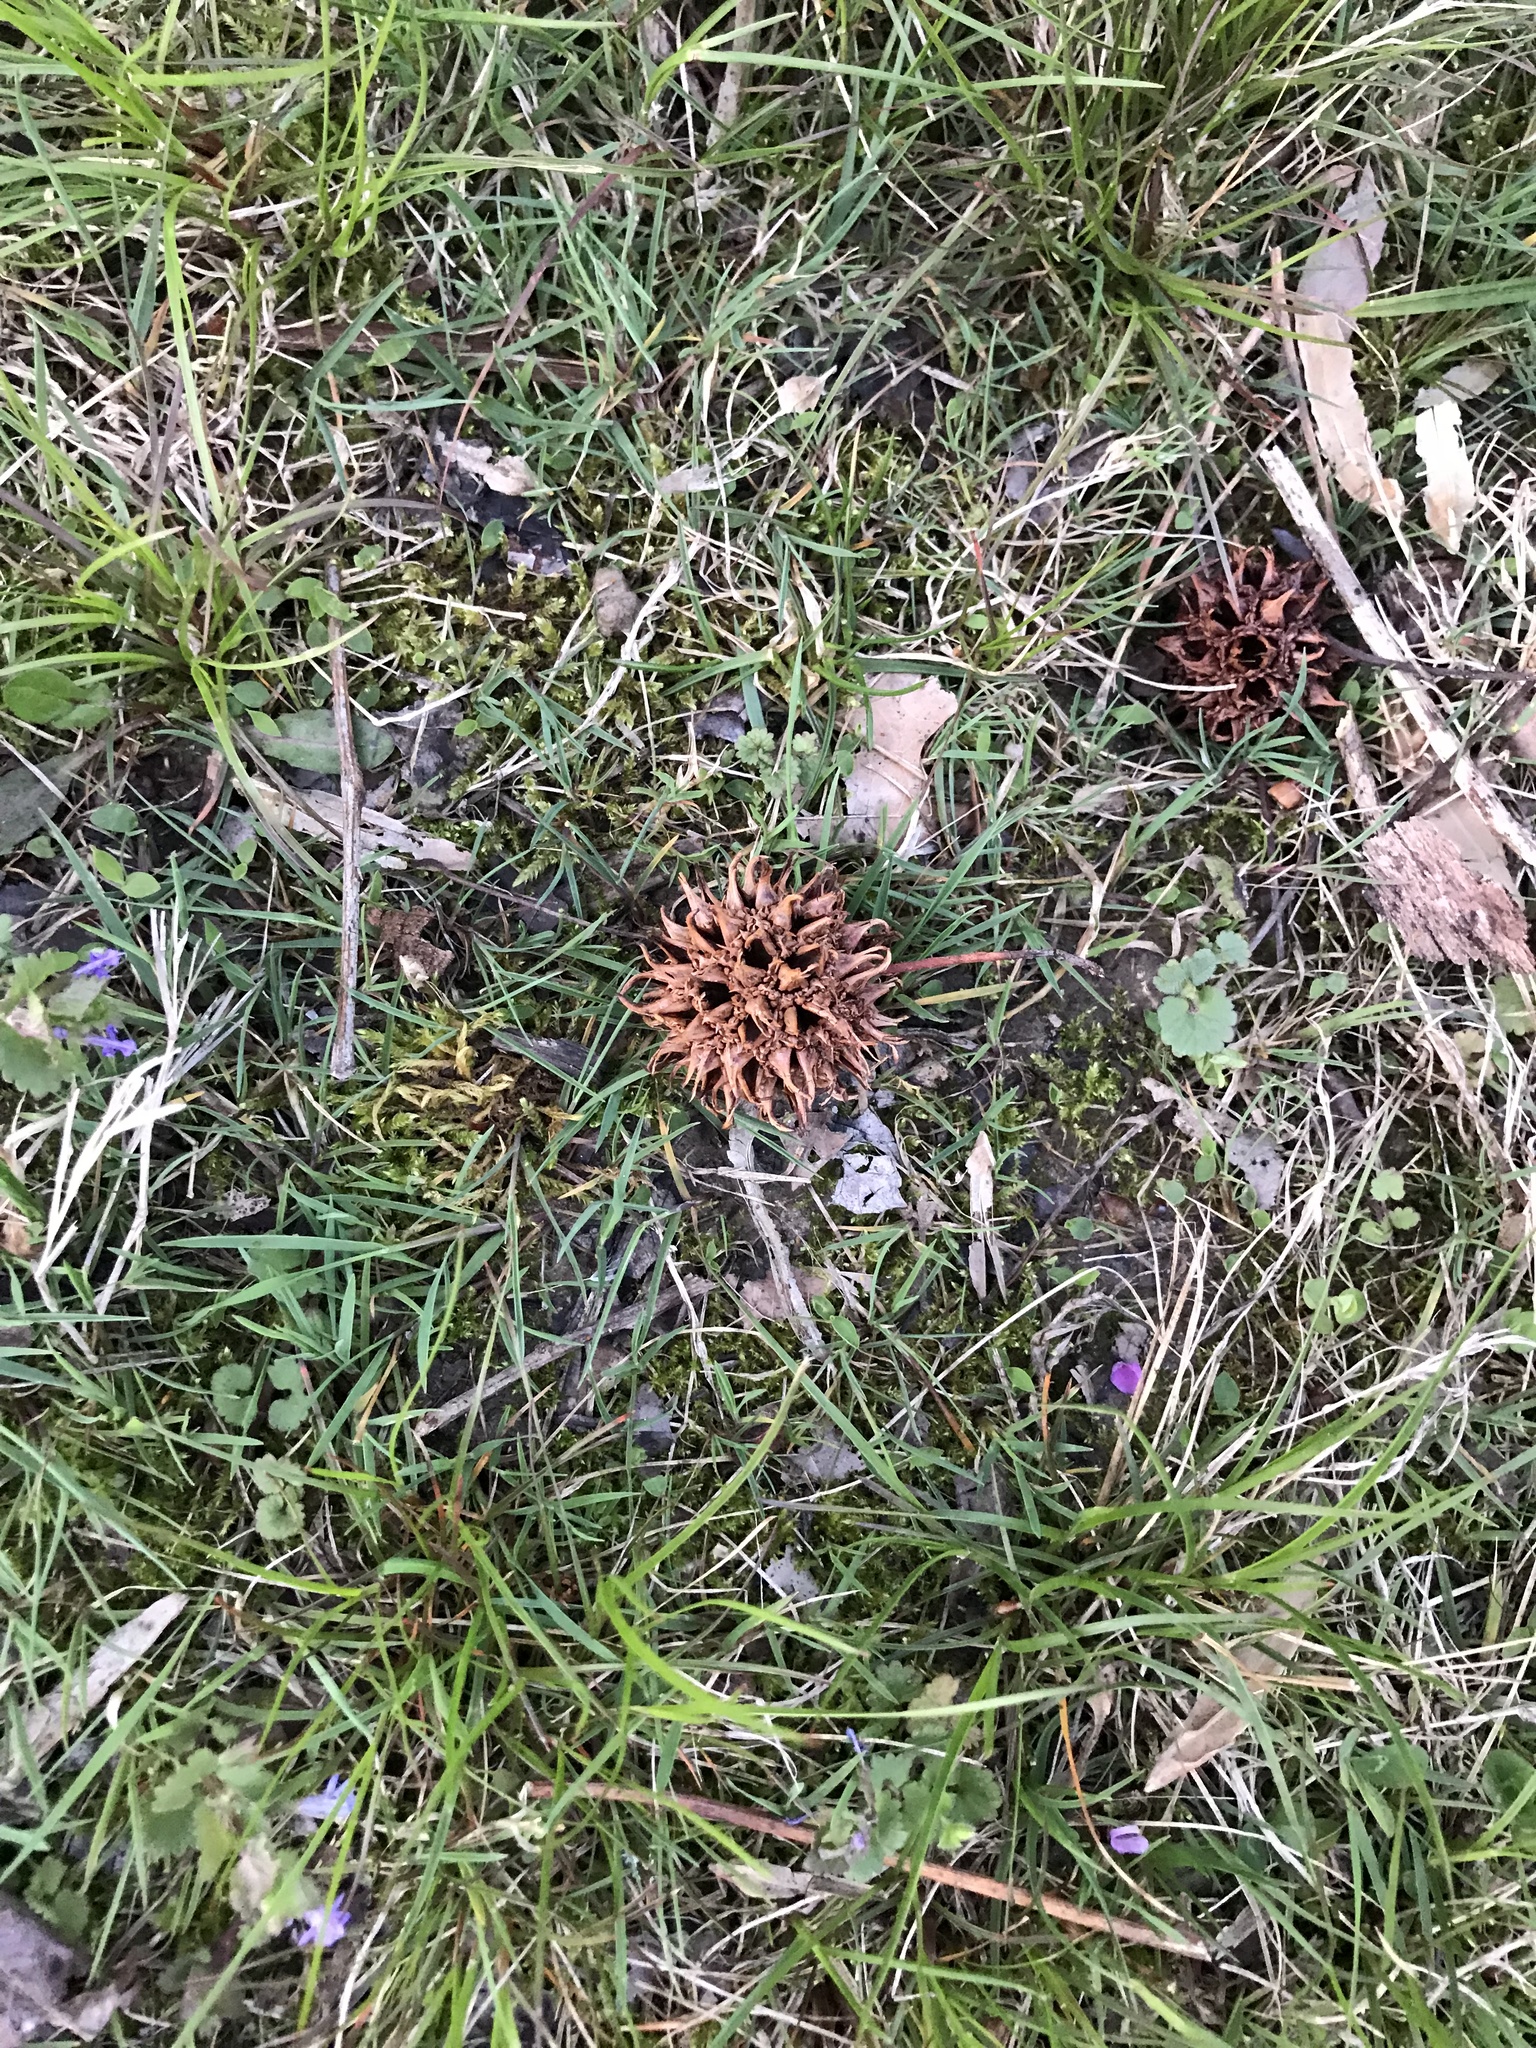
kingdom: Plantae
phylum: Tracheophyta
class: Magnoliopsida
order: Saxifragales
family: Altingiaceae
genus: Liquidambar
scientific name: Liquidambar styraciflua
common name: Sweet gum
